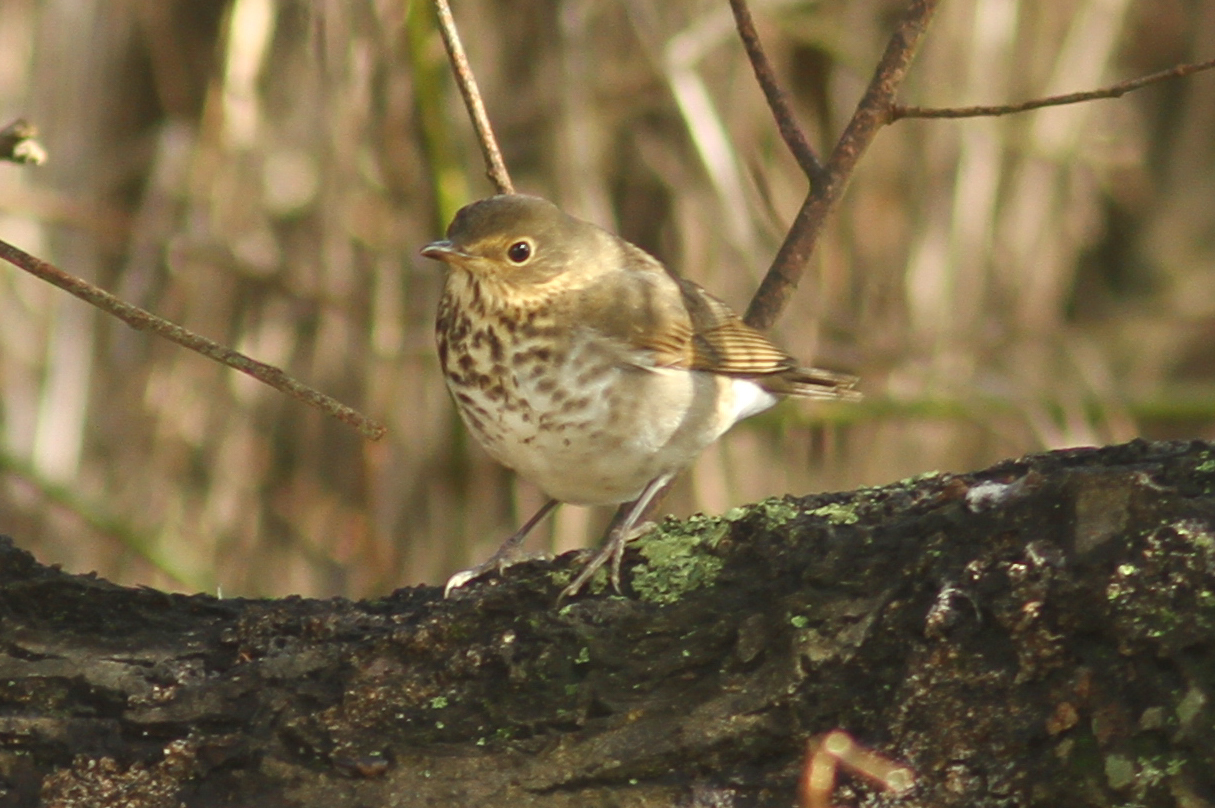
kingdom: Animalia
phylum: Chordata
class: Aves
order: Passeriformes
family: Turdidae
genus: Catharus
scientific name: Catharus ustulatus
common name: Swainson's thrush
